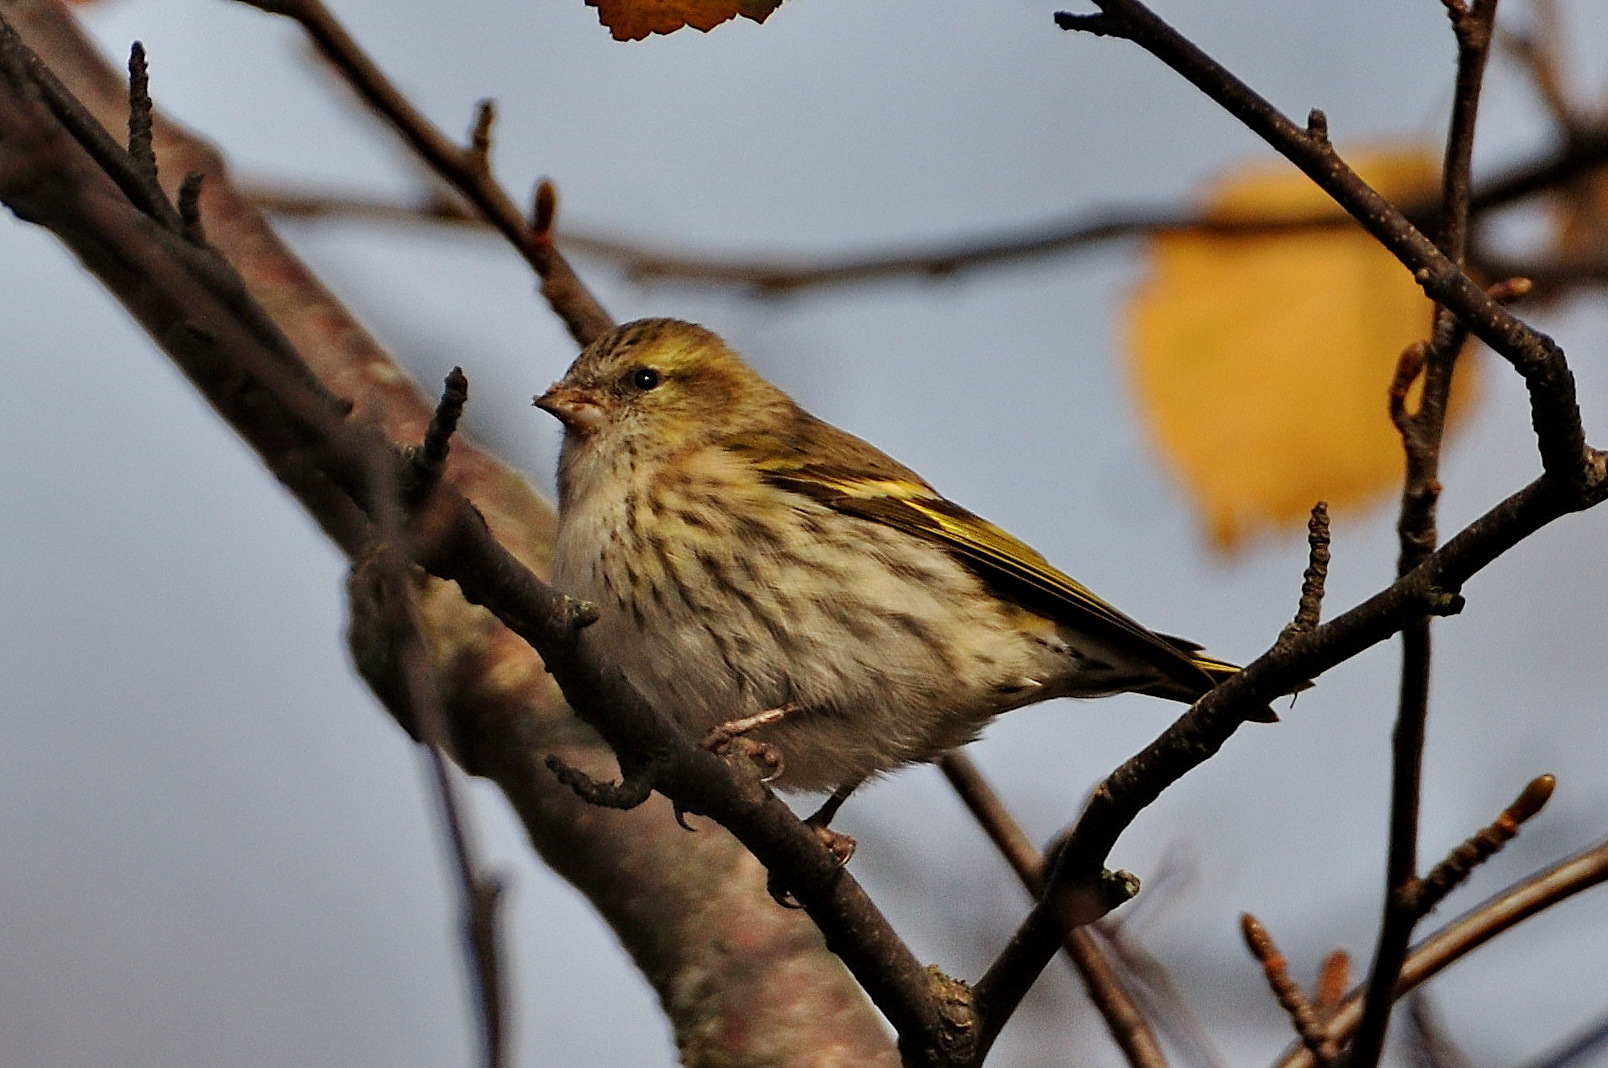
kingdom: Animalia
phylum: Chordata
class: Aves
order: Passeriformes
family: Fringillidae
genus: Spinus
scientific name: Spinus spinus
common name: Eurasian siskin
